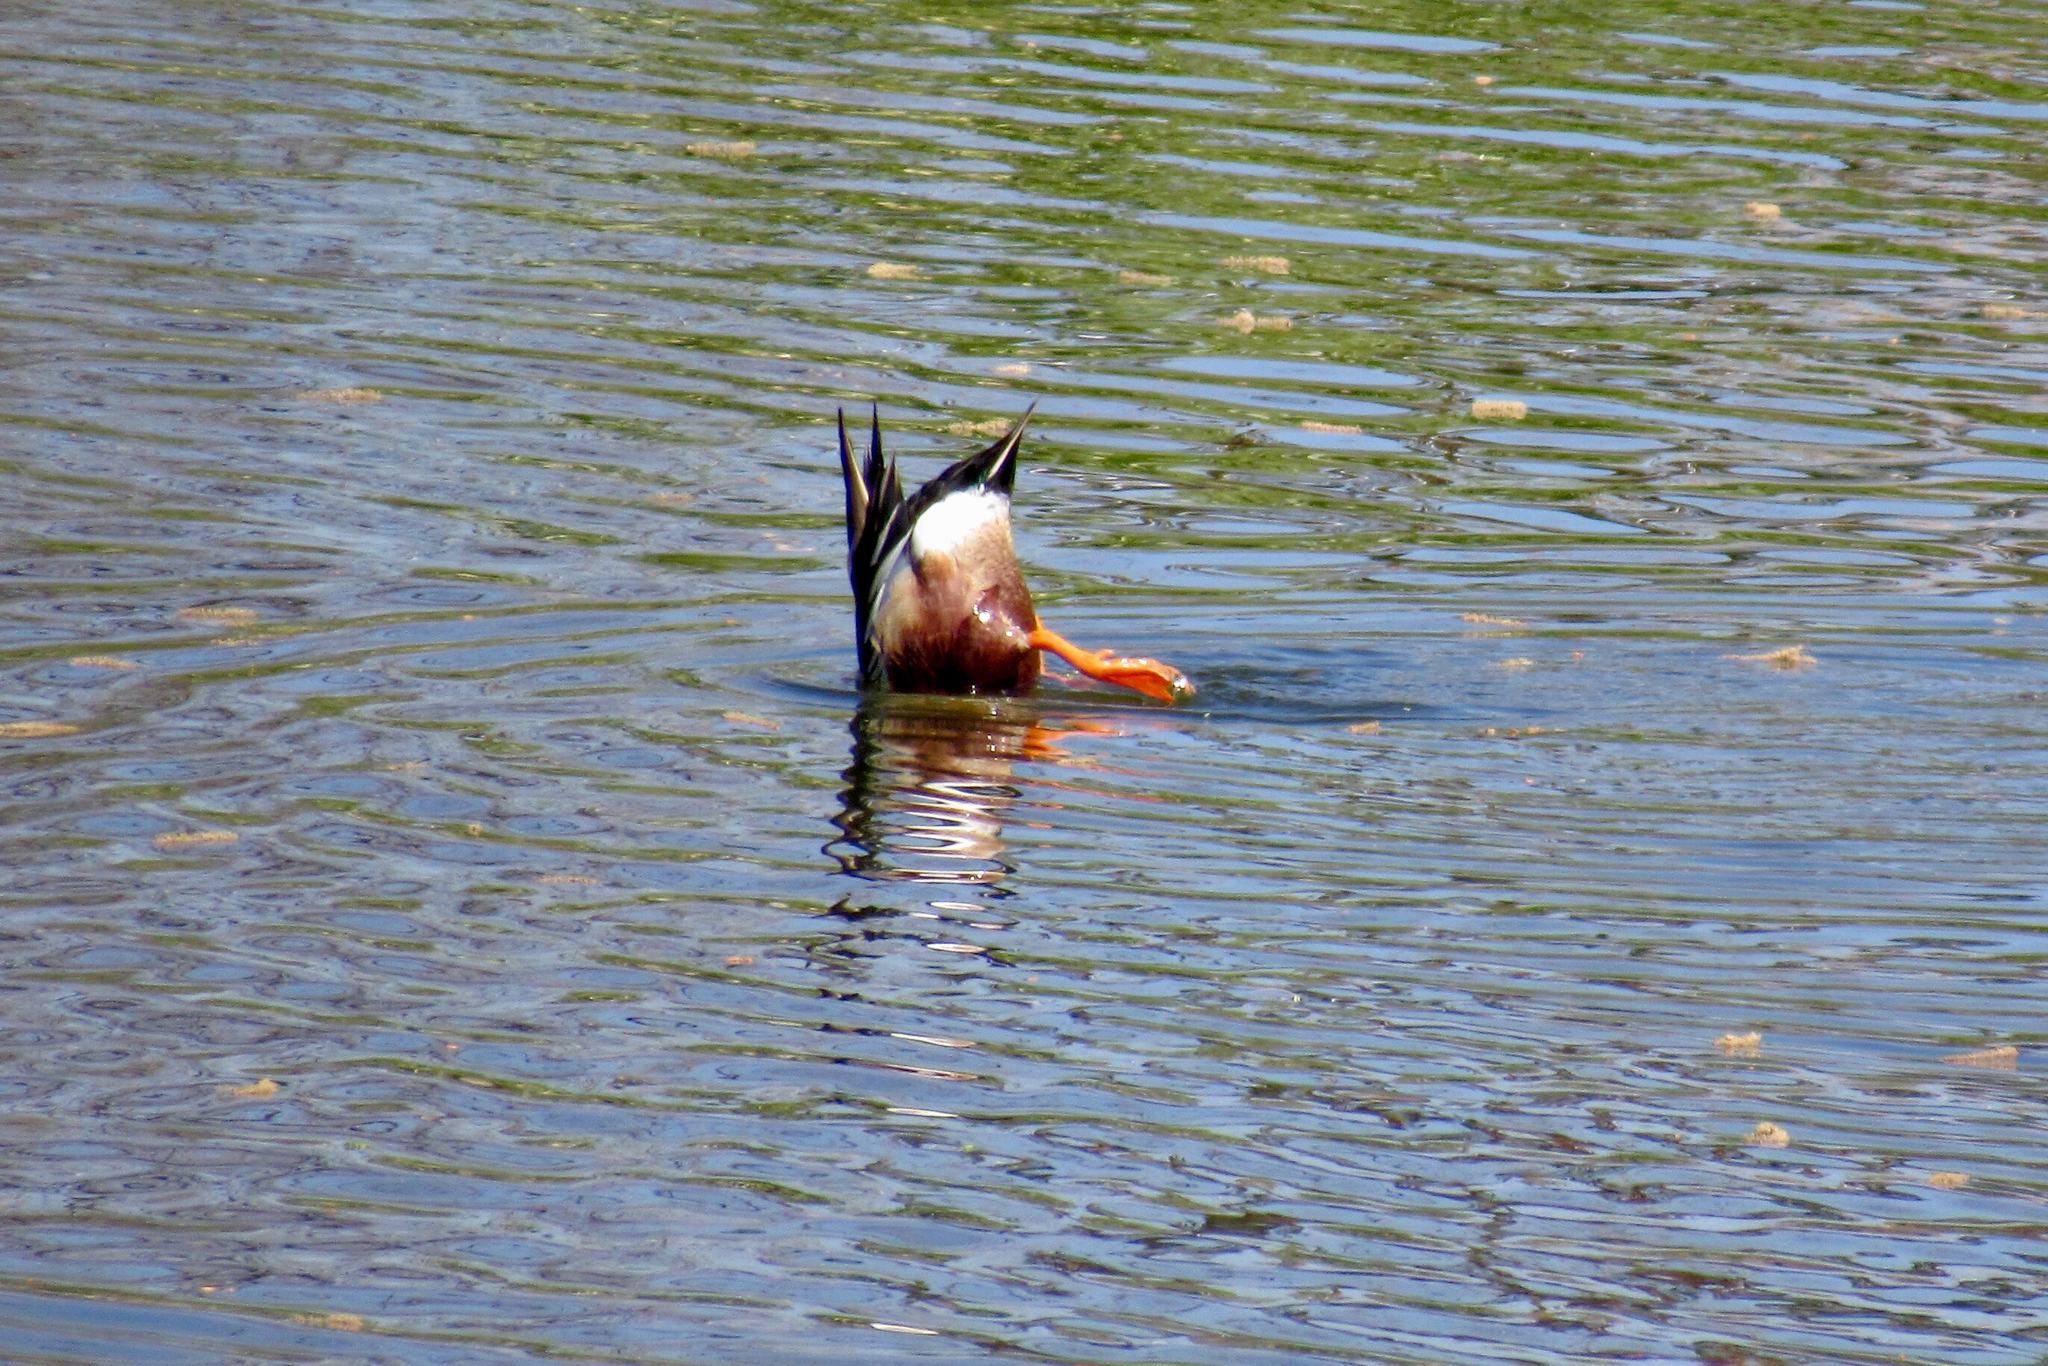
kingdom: Animalia
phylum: Chordata
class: Aves
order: Anseriformes
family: Anatidae
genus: Spatula
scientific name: Spatula clypeata
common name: Northern shoveler
